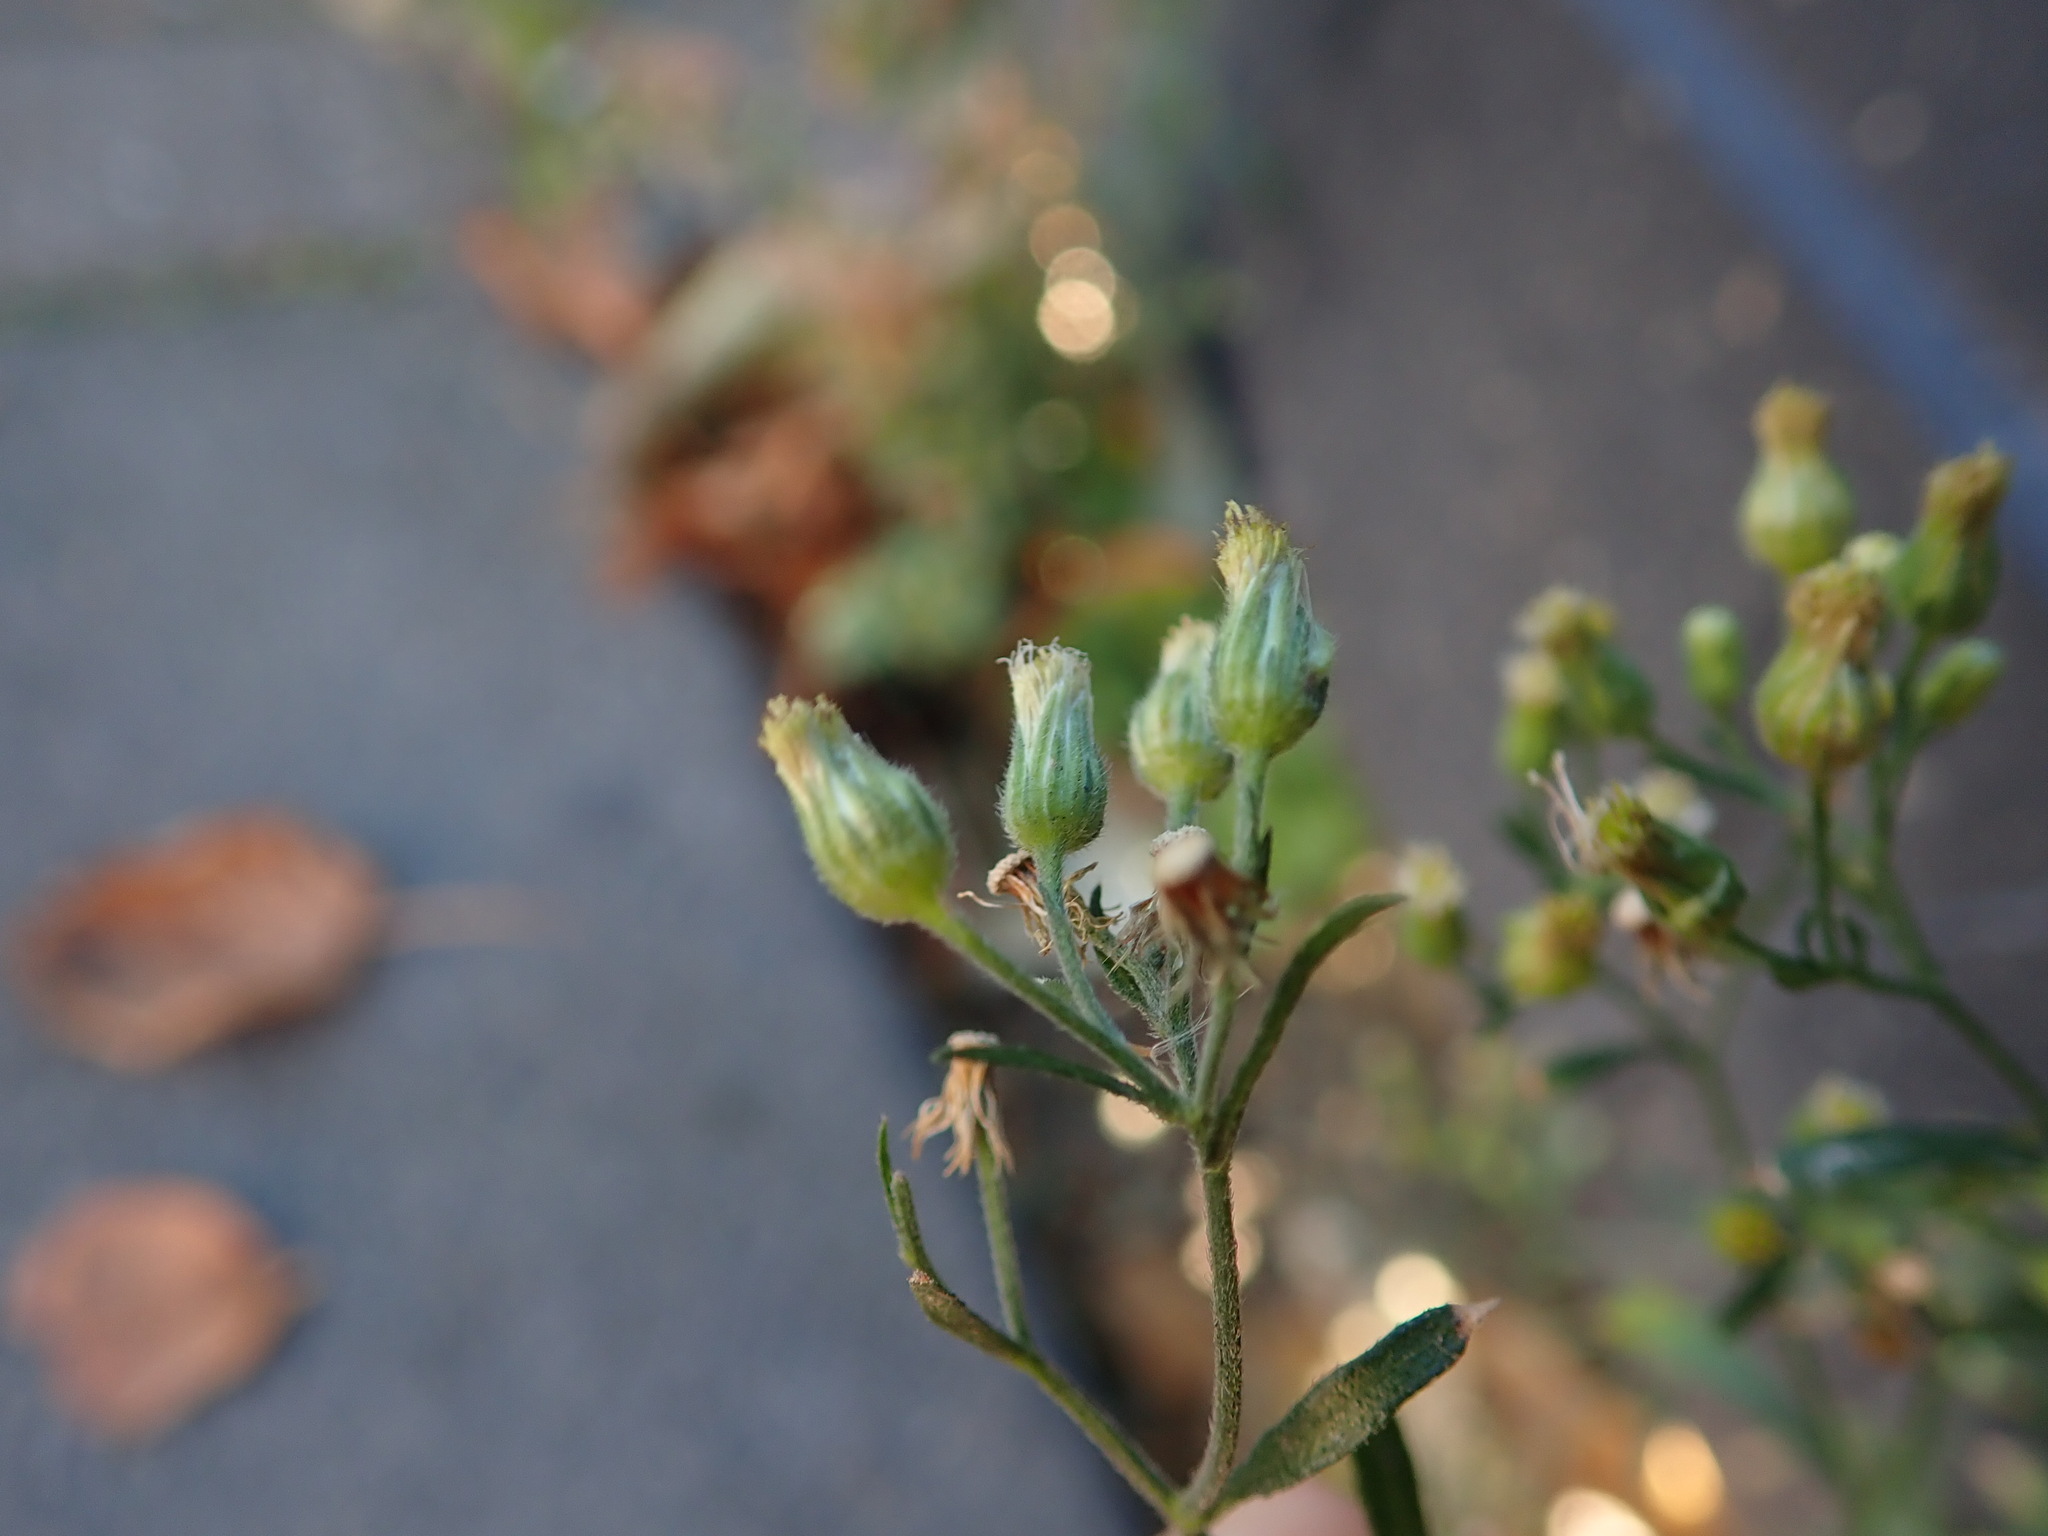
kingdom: Plantae
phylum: Tracheophyta
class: Magnoliopsida
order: Asterales
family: Asteraceae
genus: Erigeron
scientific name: Erigeron sumatrensis
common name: Daisy
